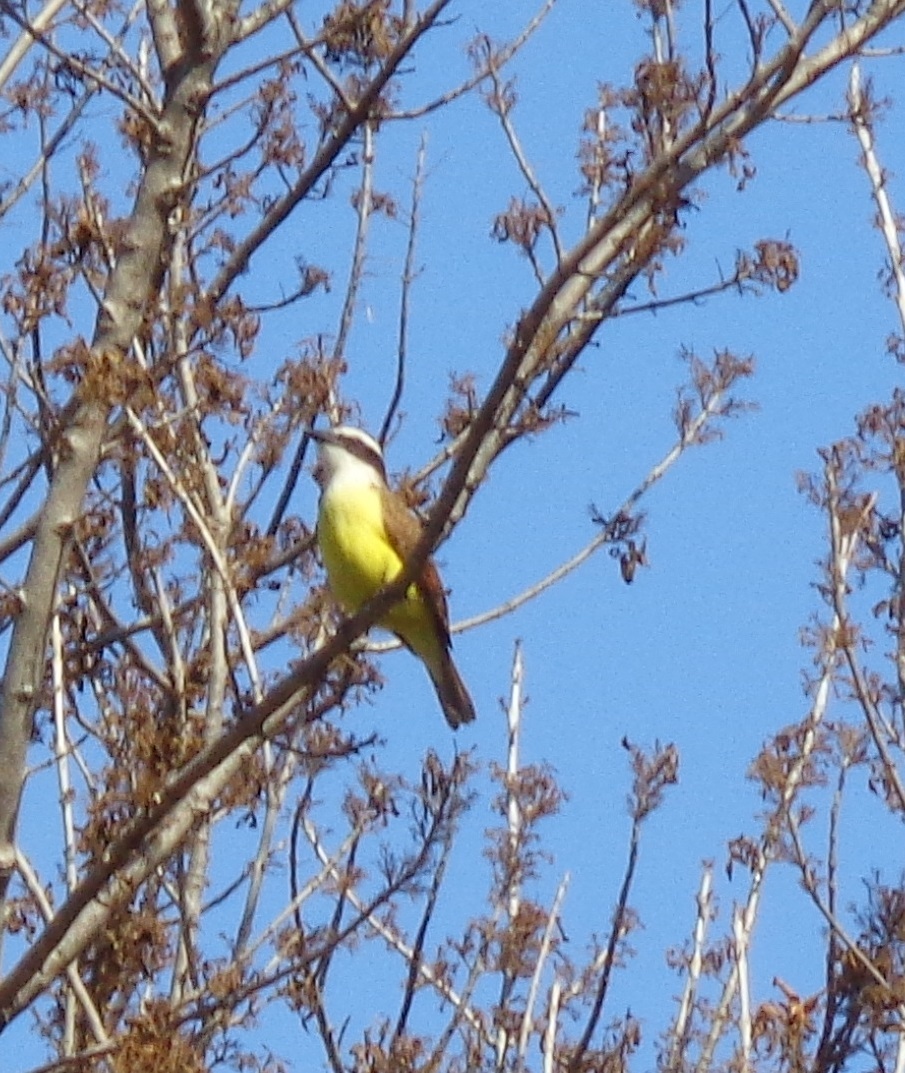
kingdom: Animalia
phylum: Chordata
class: Aves
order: Passeriformes
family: Tyrannidae
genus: Pitangus
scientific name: Pitangus sulphuratus
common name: Great kiskadee
